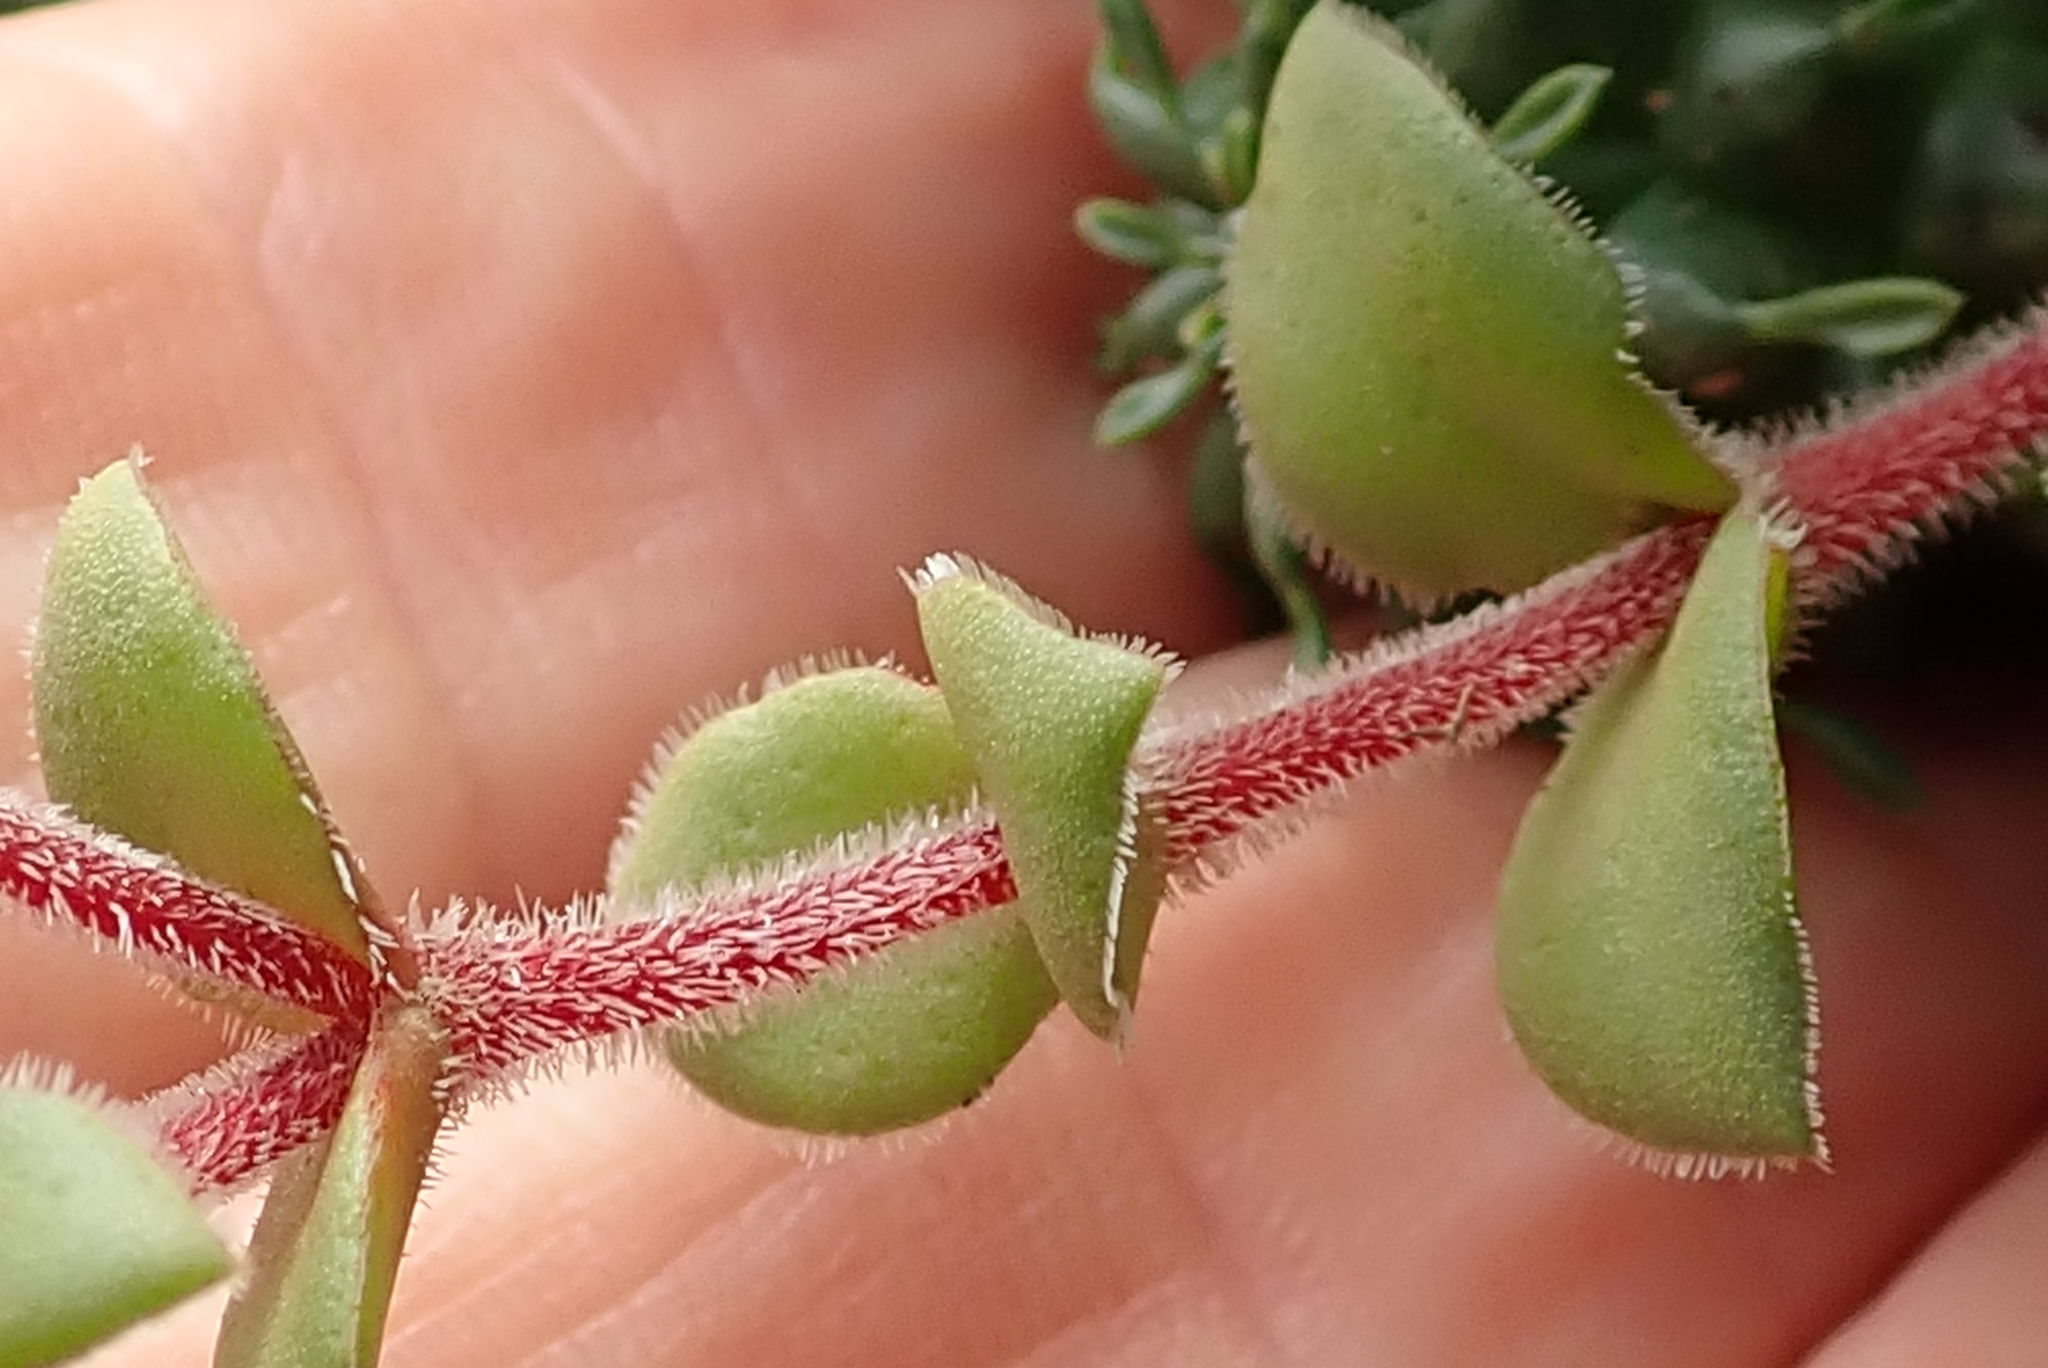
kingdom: Plantae
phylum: Tracheophyta
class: Magnoliopsida
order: Saxifragales
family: Crassulaceae
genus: Crassula
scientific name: Crassula natalensis
